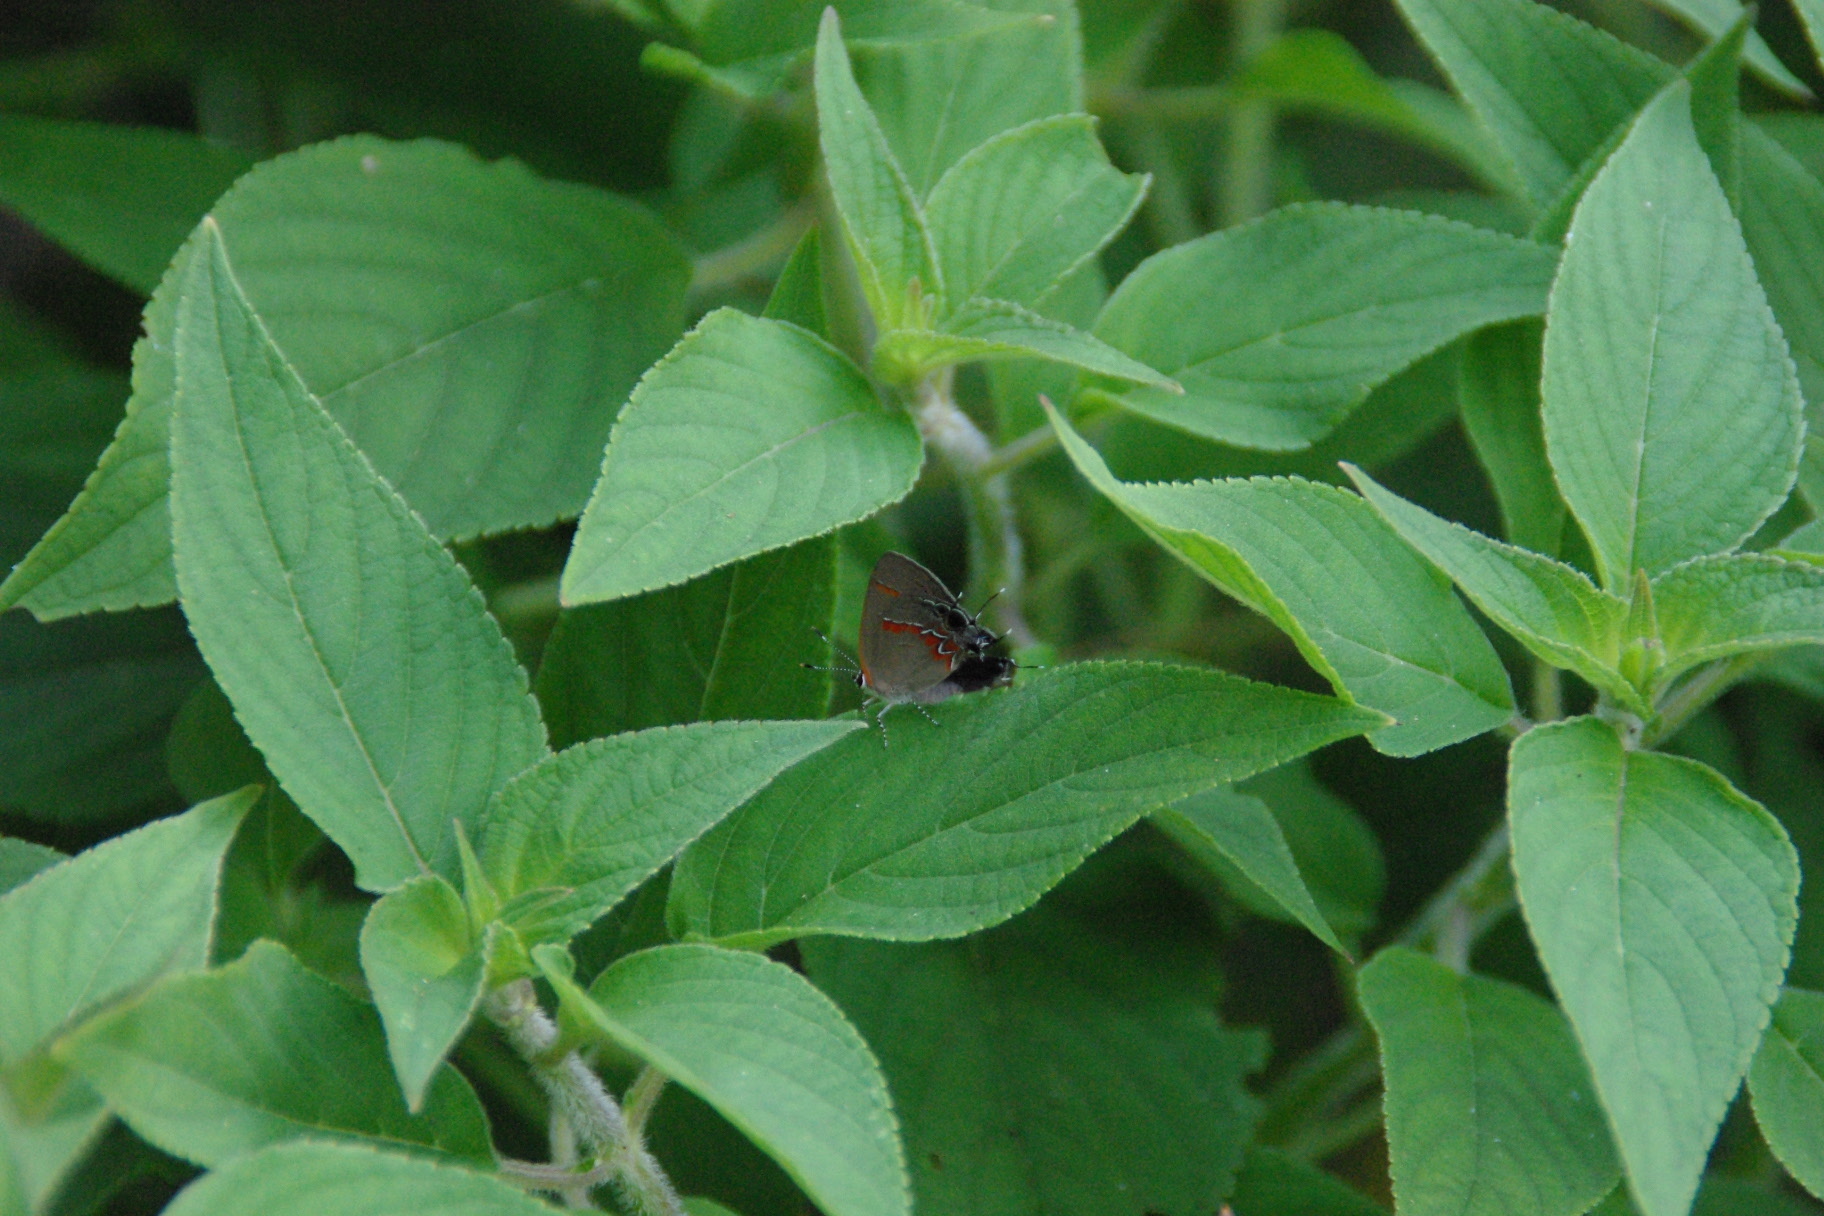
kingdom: Animalia
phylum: Arthropoda
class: Insecta
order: Lepidoptera
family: Lycaenidae
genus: Calycopis
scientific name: Calycopis cecrops
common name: Red-banded hairstreak
